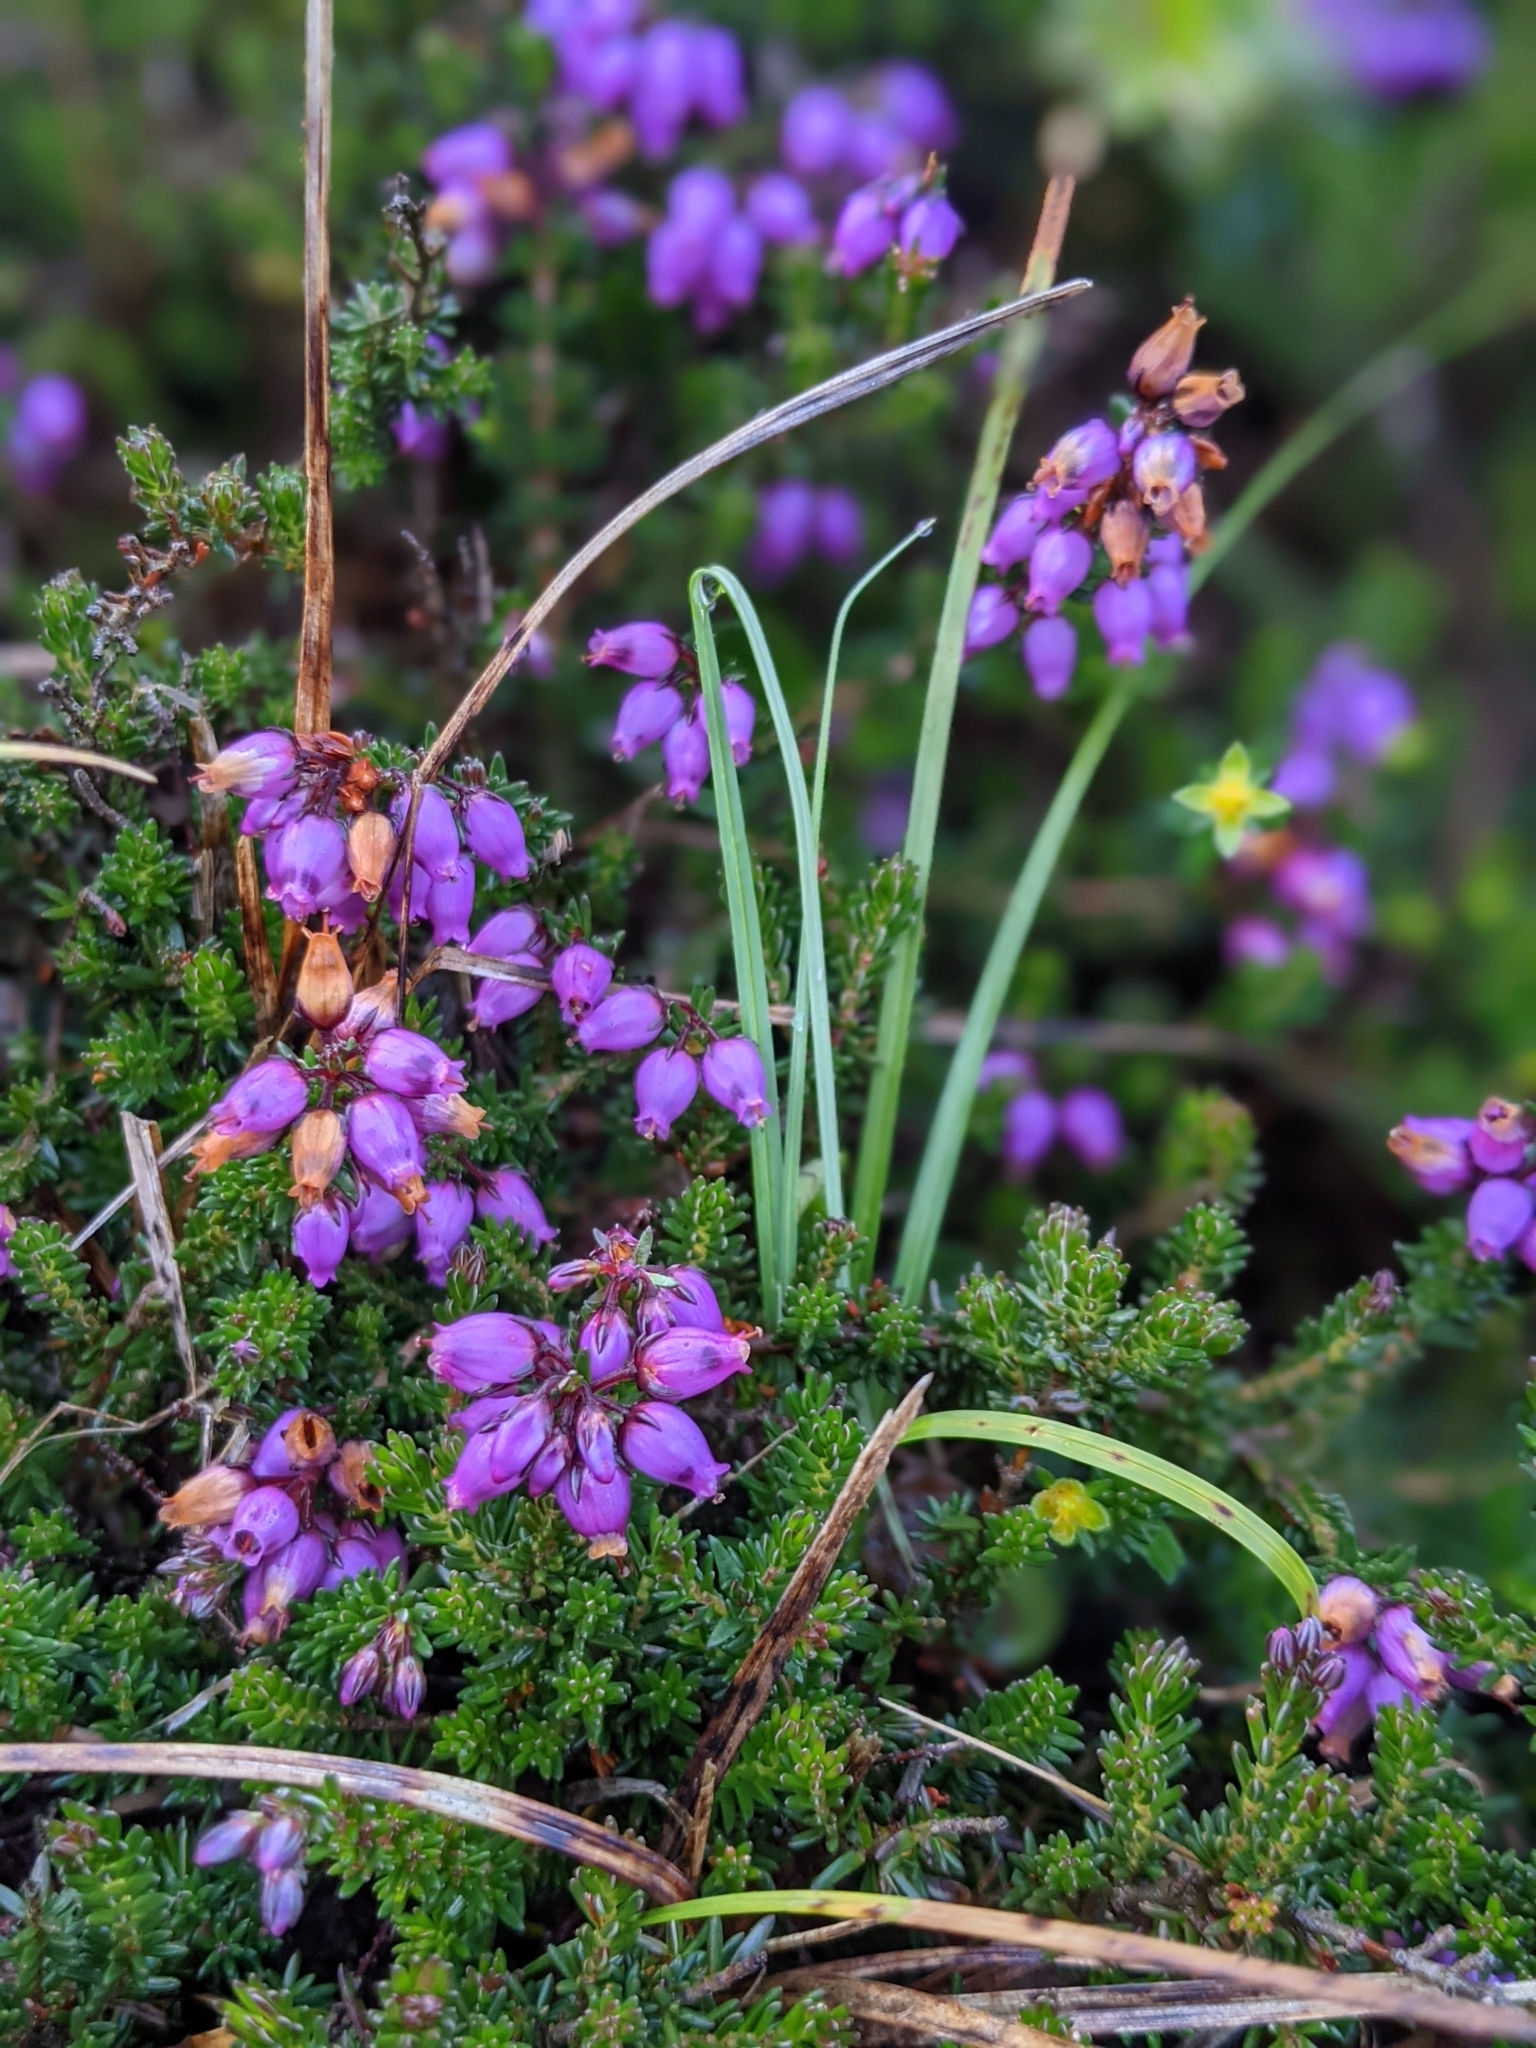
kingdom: Plantae
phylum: Tracheophyta
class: Magnoliopsida
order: Ericales
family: Ericaceae
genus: Erica
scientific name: Erica cinerea
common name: Bell heather
